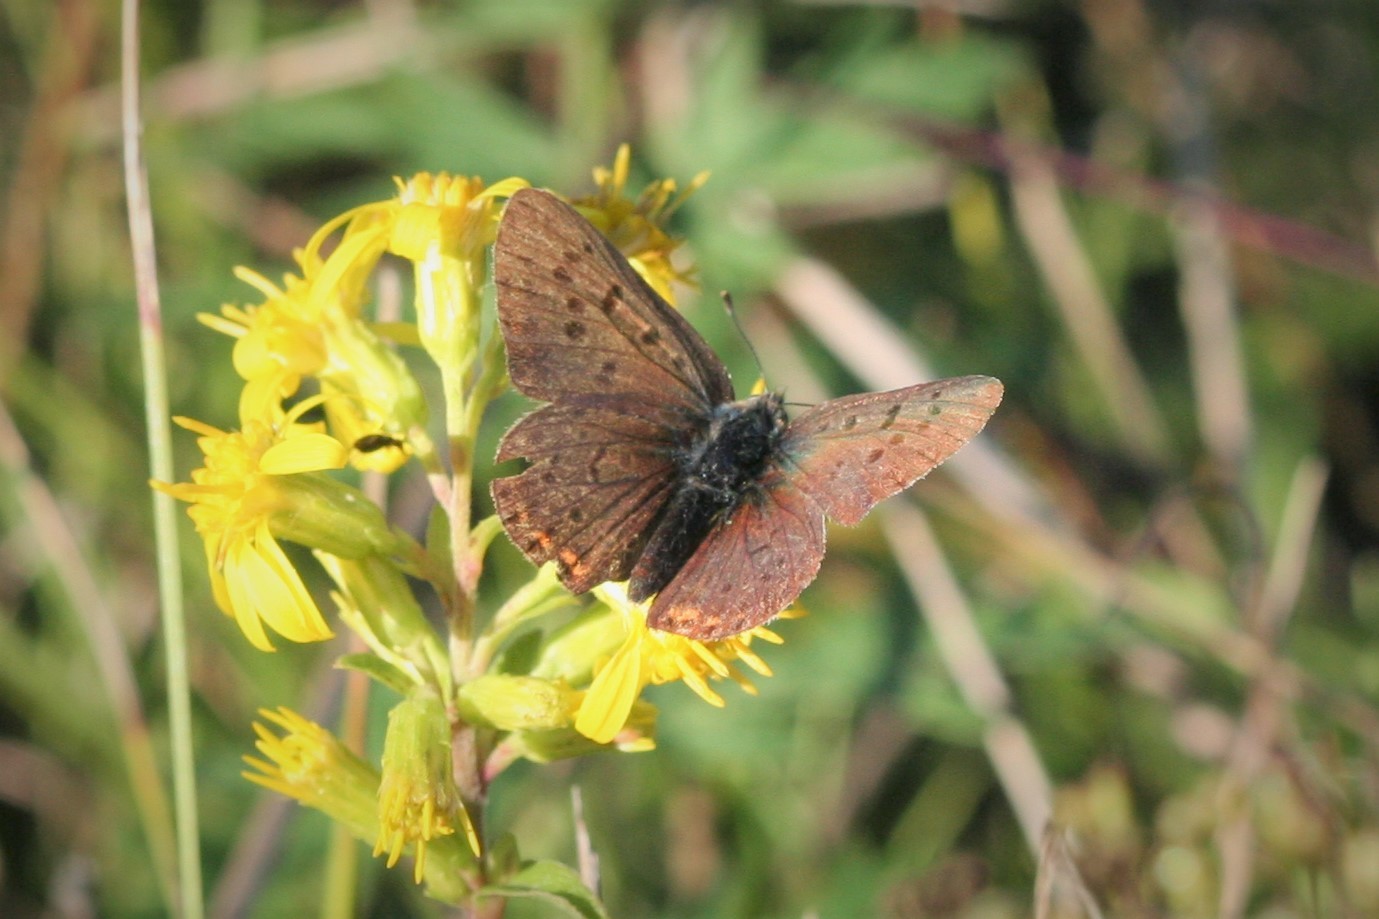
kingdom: Animalia
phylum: Arthropoda
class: Insecta
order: Lepidoptera
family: Lycaenidae
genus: Loweia
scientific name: Loweia tityrus
